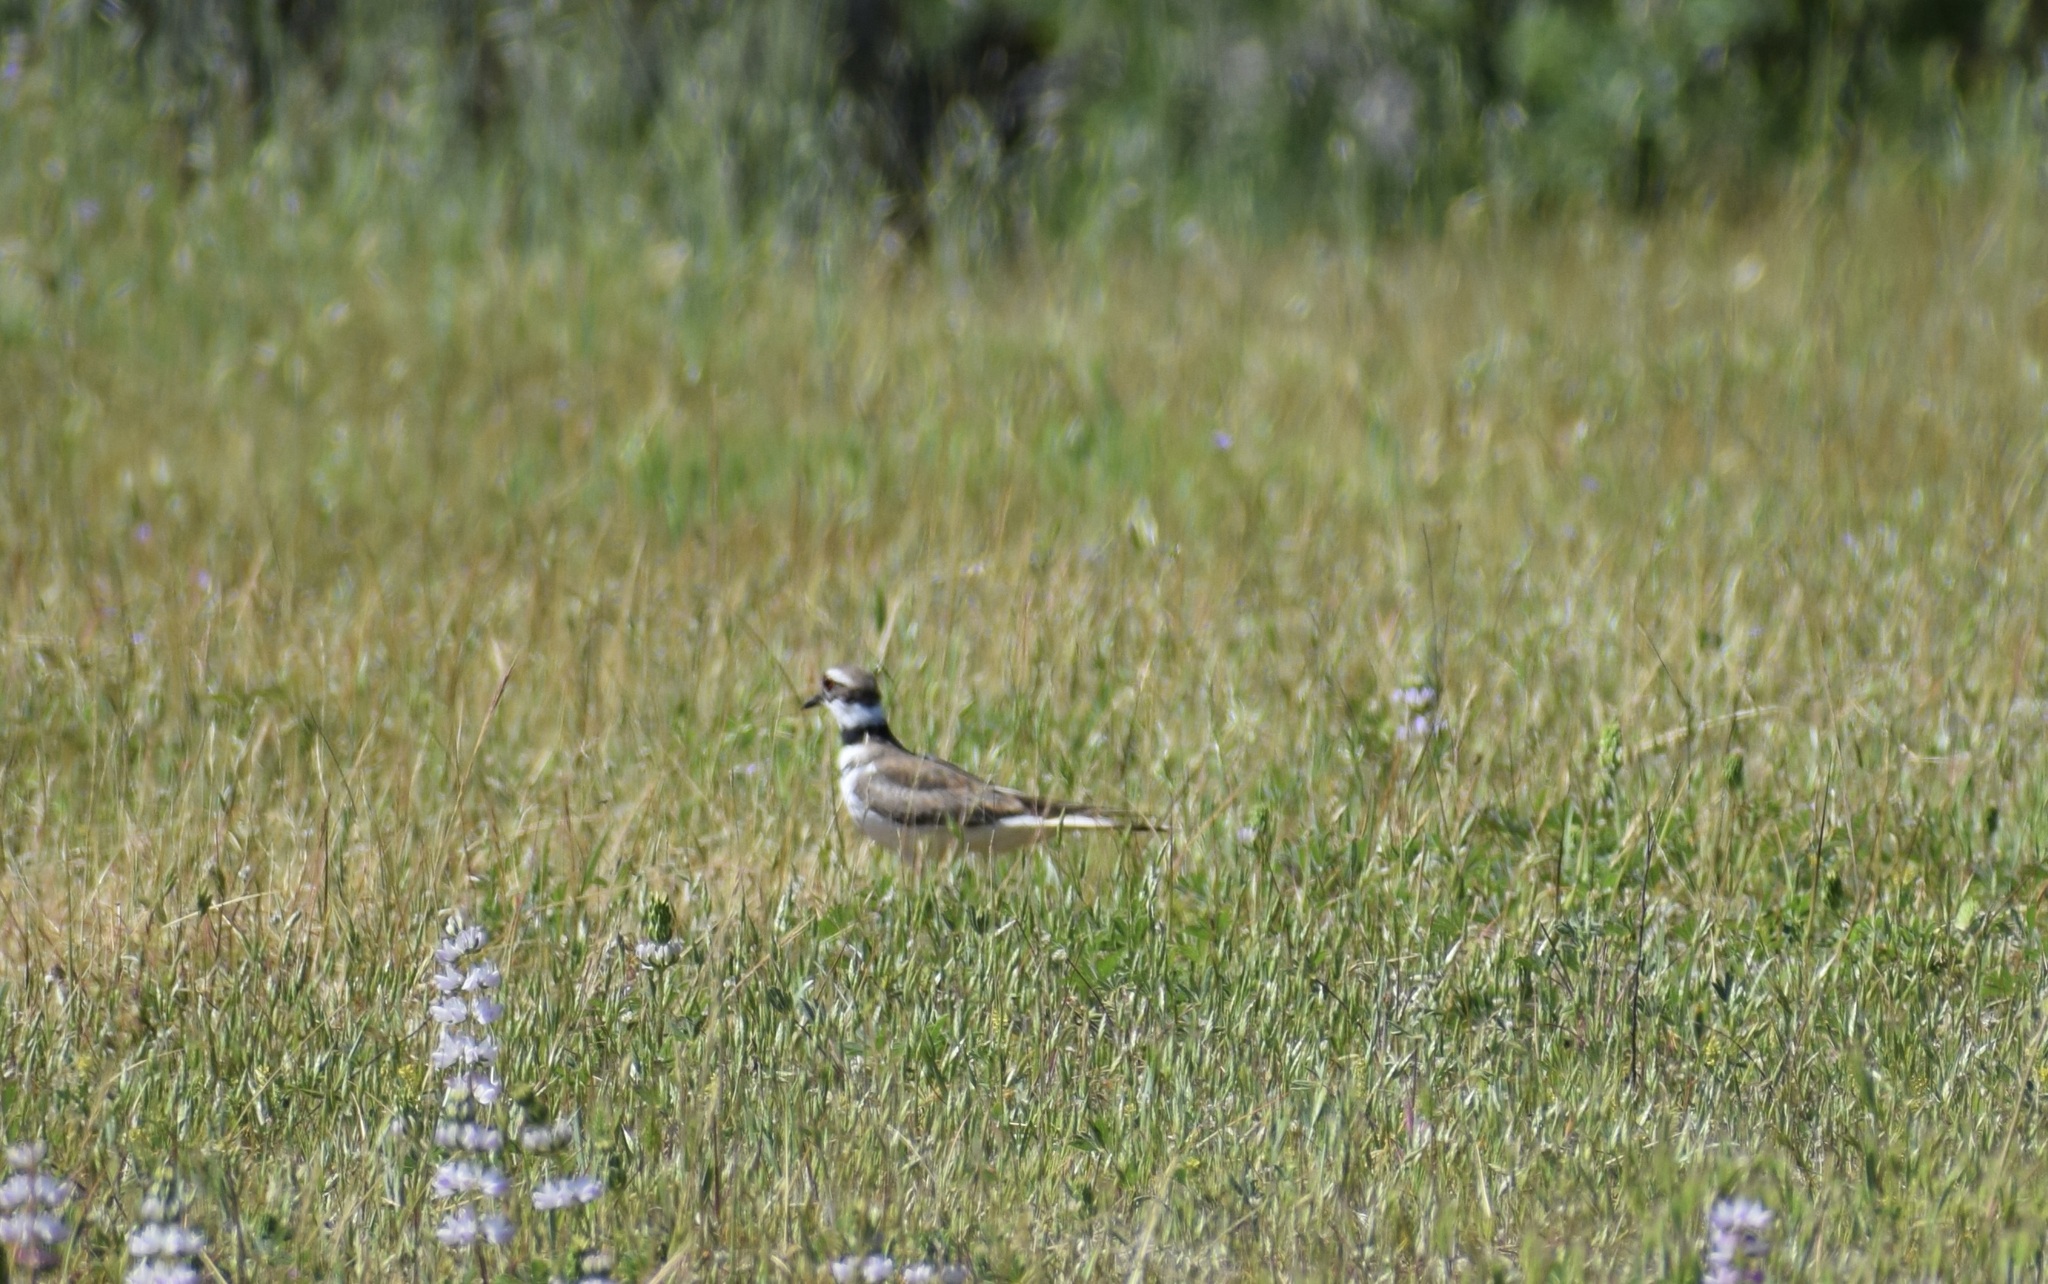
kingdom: Animalia
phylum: Chordata
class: Aves
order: Charadriiformes
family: Charadriidae
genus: Charadrius
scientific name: Charadrius vociferus
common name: Killdeer
